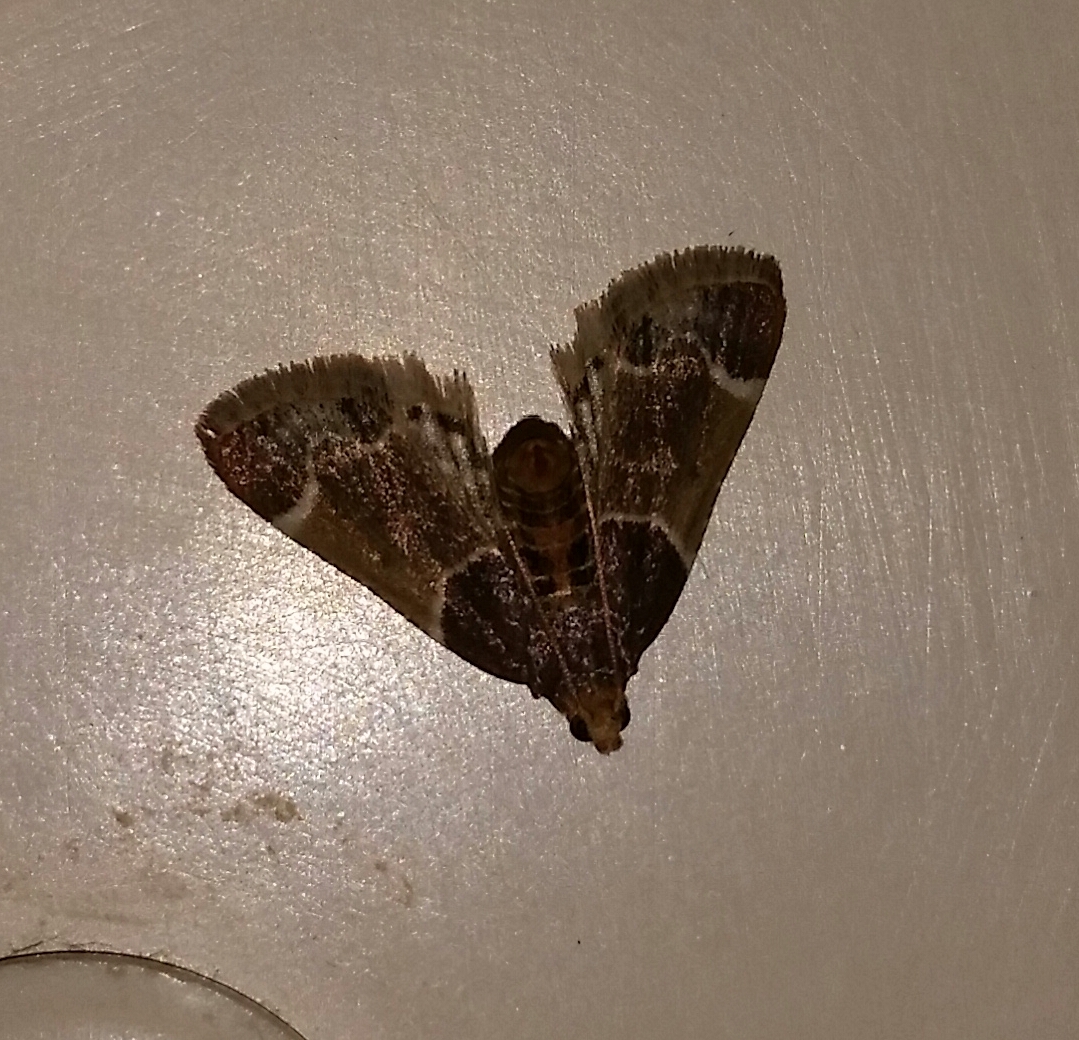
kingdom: Animalia
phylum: Arthropoda
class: Insecta
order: Lepidoptera
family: Pyralidae
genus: Pyralis
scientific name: Pyralis farinalis
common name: Meal moth
